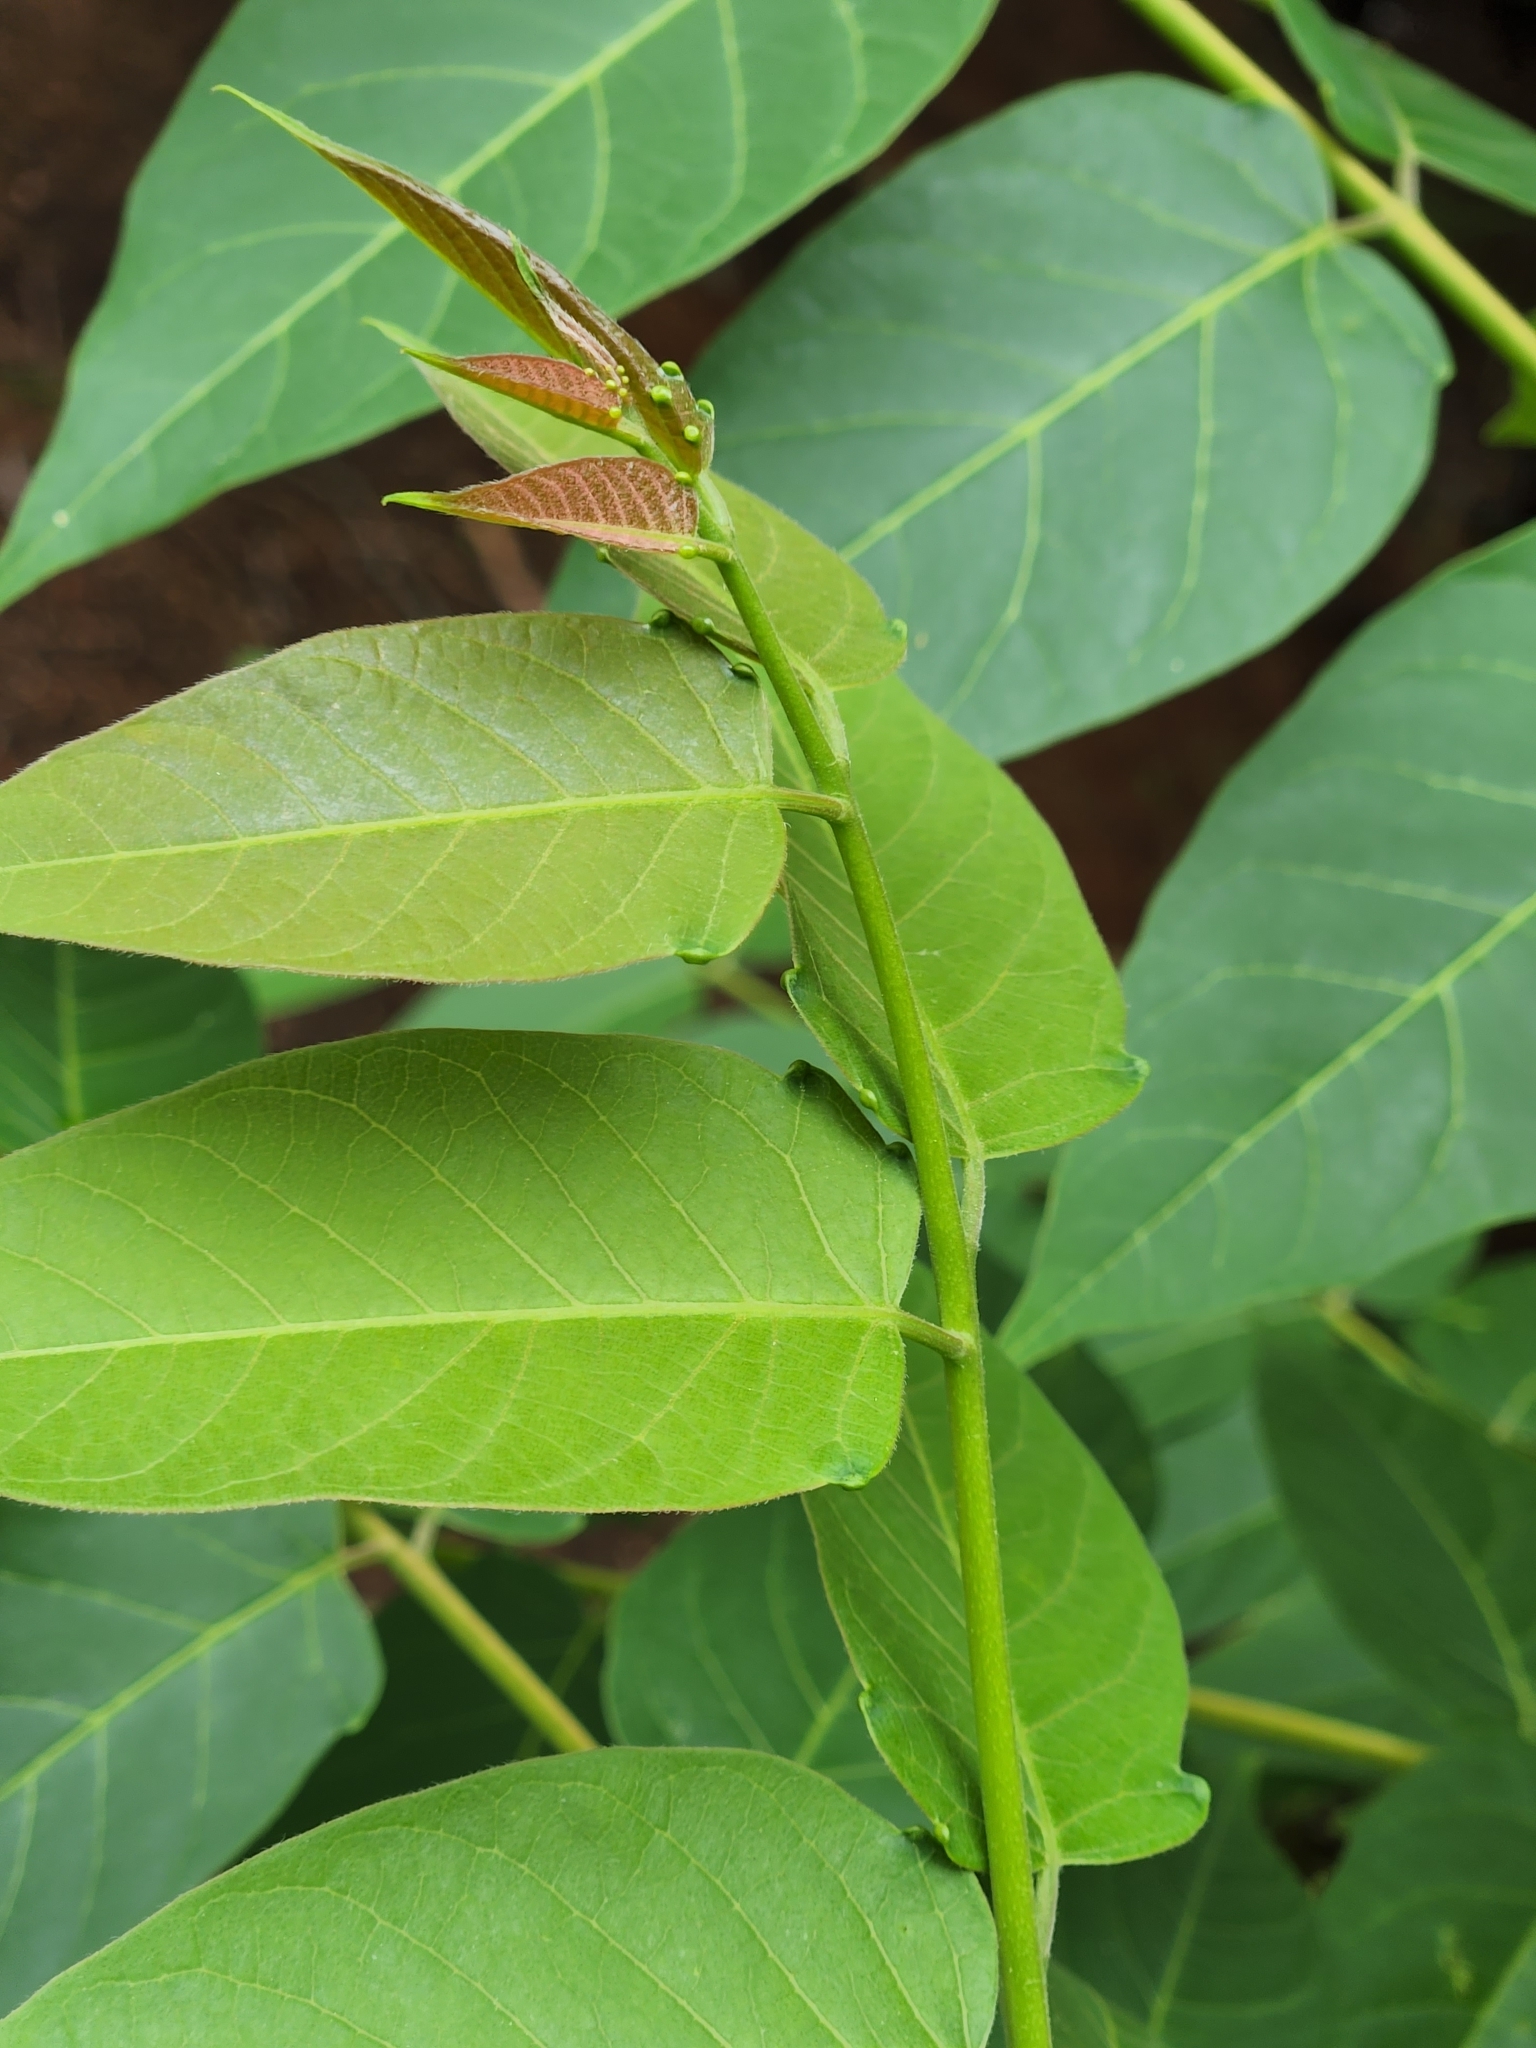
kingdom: Plantae
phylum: Tracheophyta
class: Magnoliopsida
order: Sapindales
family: Simaroubaceae
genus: Ailanthus
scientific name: Ailanthus altissima
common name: Tree-of-heaven
